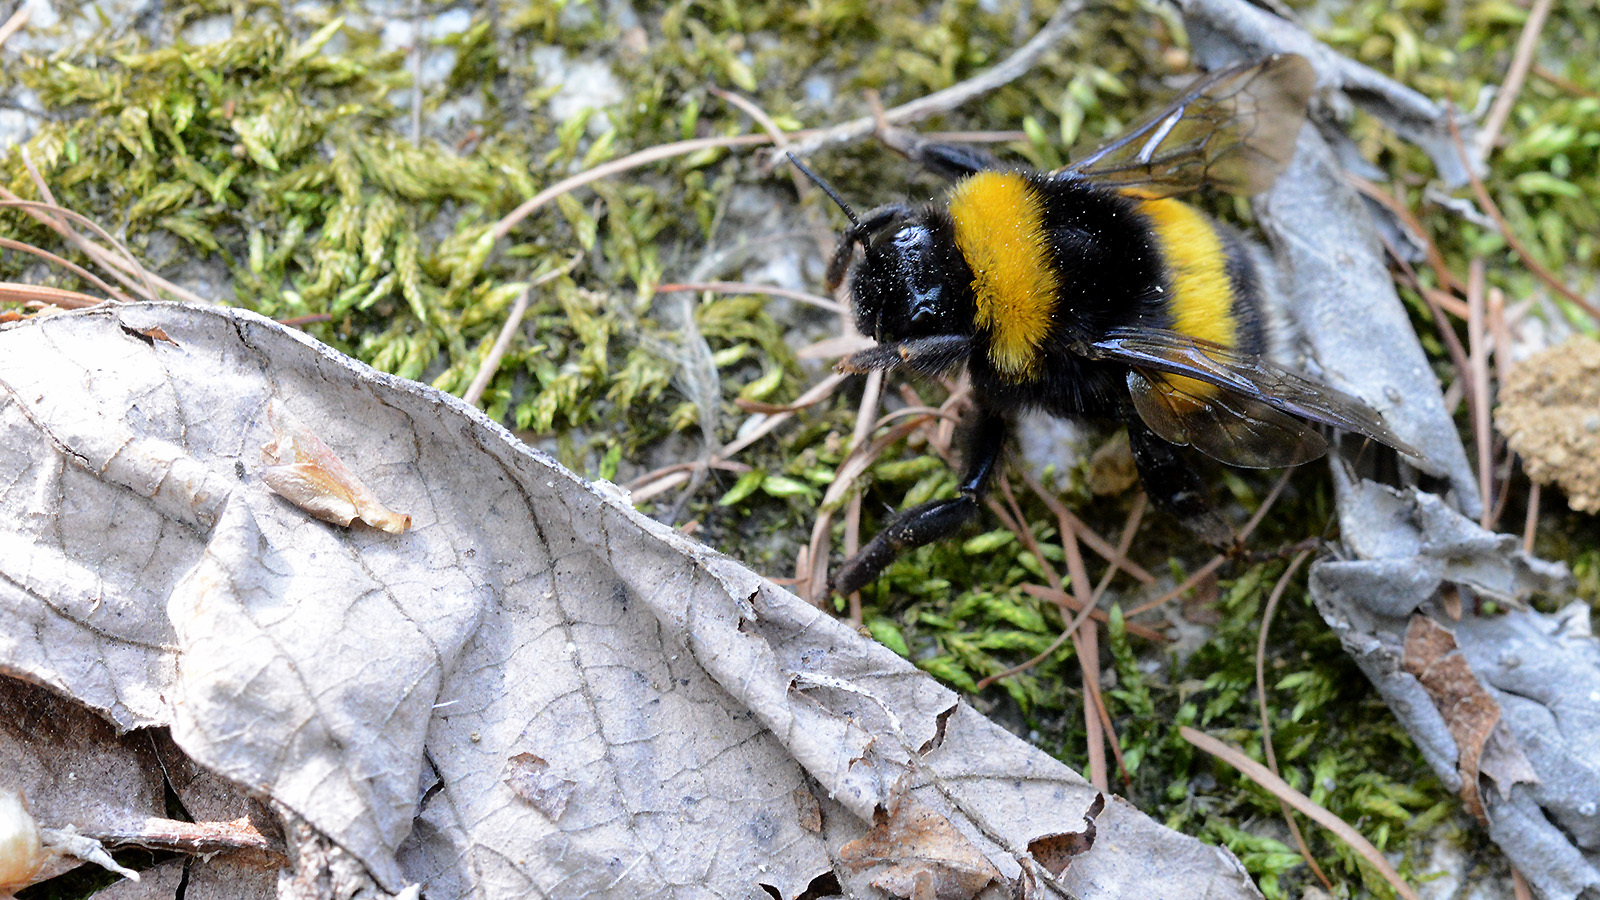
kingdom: Animalia
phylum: Arthropoda
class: Insecta
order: Hymenoptera
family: Apidae
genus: Bombus
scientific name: Bombus terrestris
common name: Buff-tailed bumblebee
